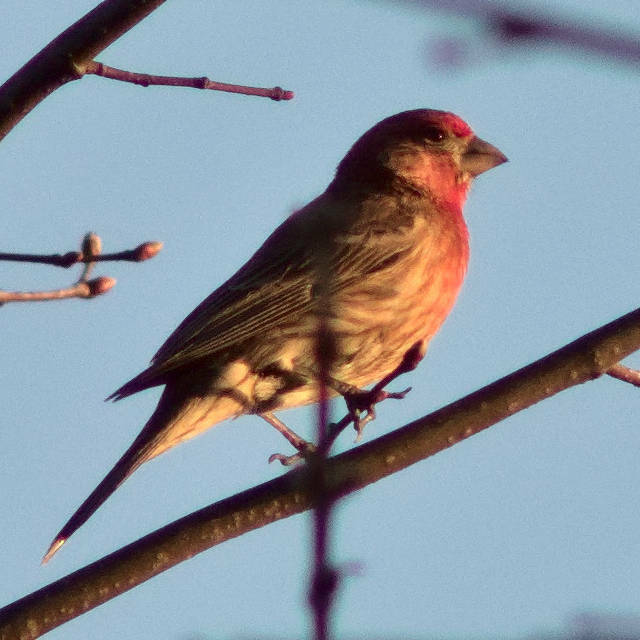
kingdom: Animalia
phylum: Chordata
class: Aves
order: Passeriformes
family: Fringillidae
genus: Haemorhous
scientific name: Haemorhous mexicanus
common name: House finch
